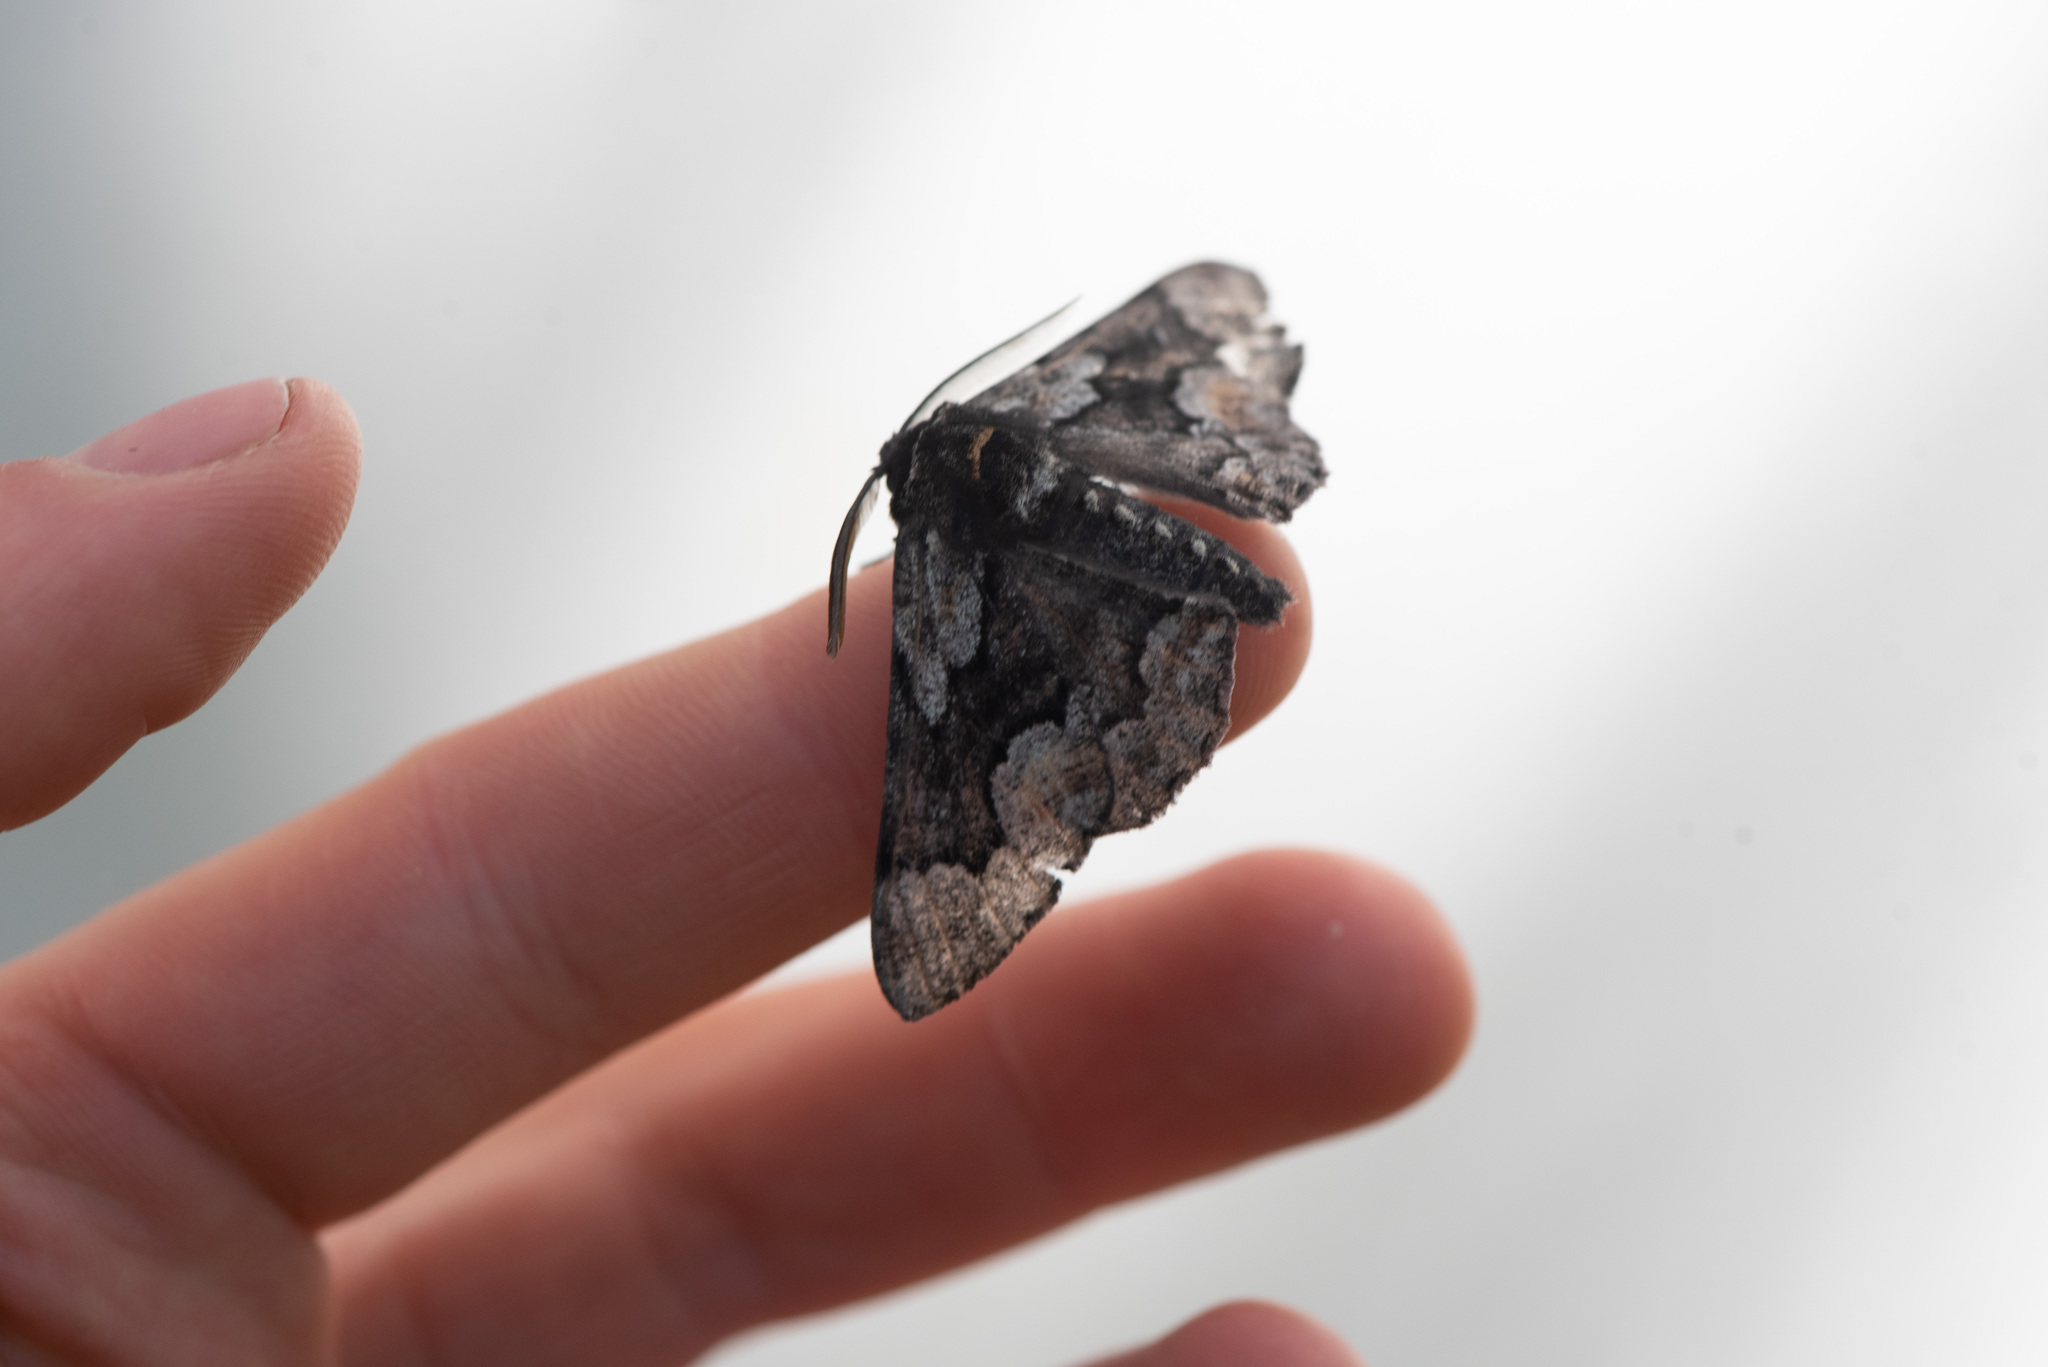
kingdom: Animalia
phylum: Arthropoda
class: Insecta
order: Lepidoptera
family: Geometridae
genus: Phaeoura
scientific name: Phaeoura mexicanaria
